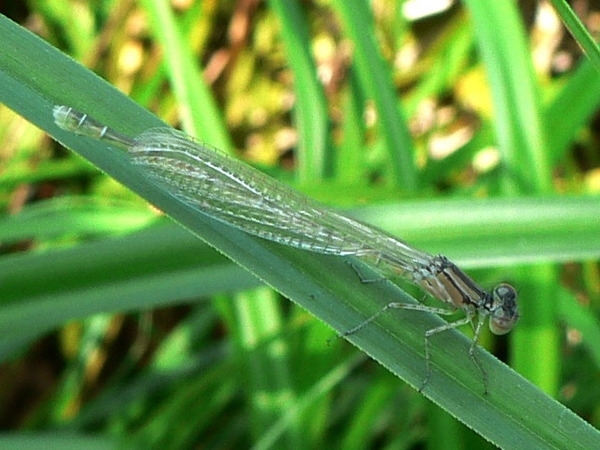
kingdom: Animalia
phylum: Arthropoda
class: Insecta
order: Odonata
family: Coenagrionidae
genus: Enallagma
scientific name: Enallagma cyathigerum
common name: Common blue damselfly
